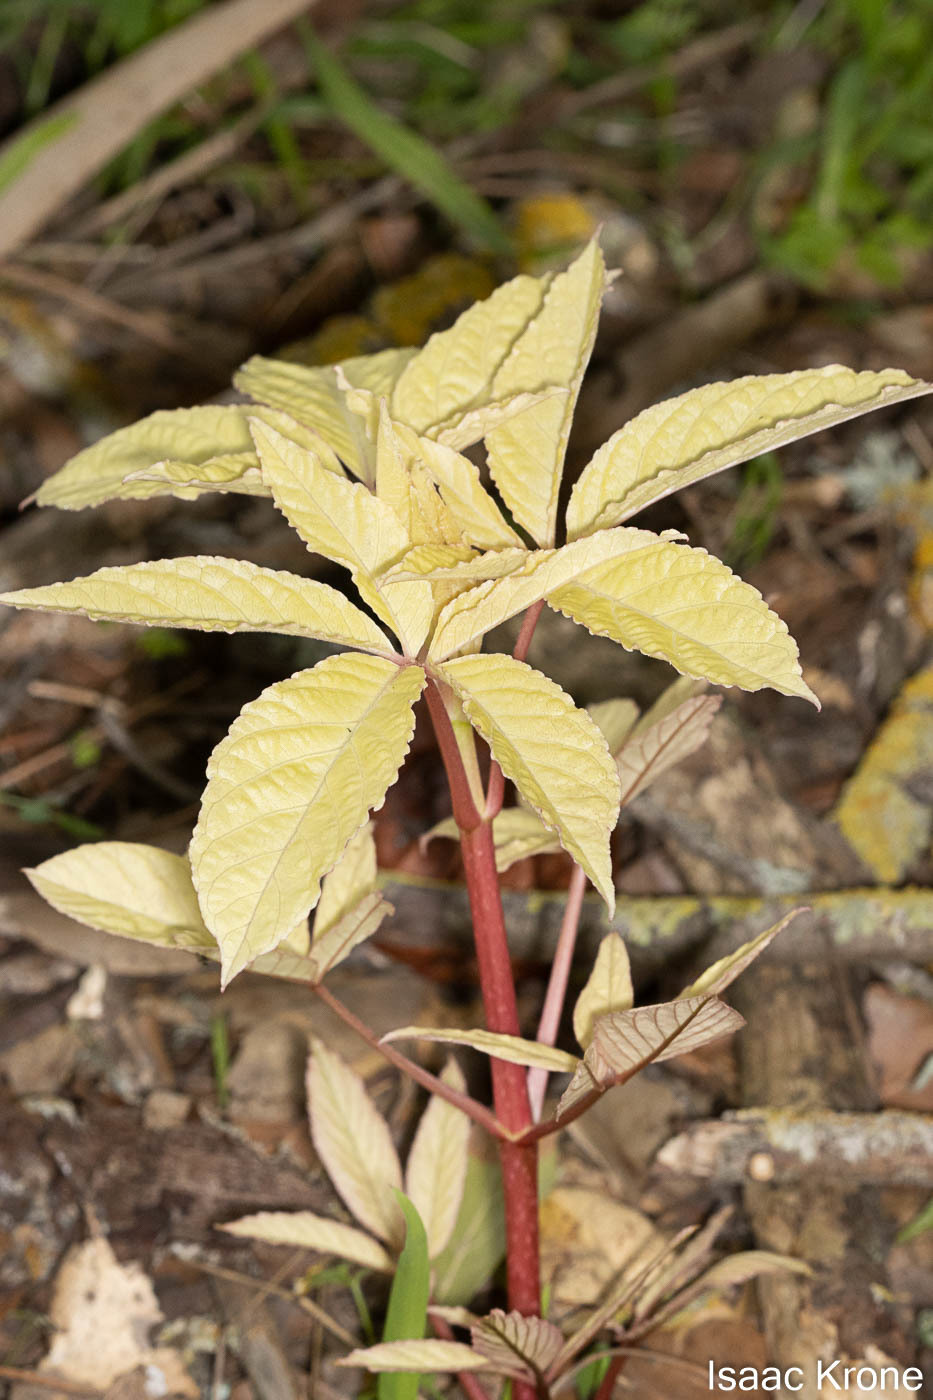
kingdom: Plantae
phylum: Tracheophyta
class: Magnoliopsida
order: Sapindales
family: Sapindaceae
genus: Aesculus
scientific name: Aesculus californica
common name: California buckeye
